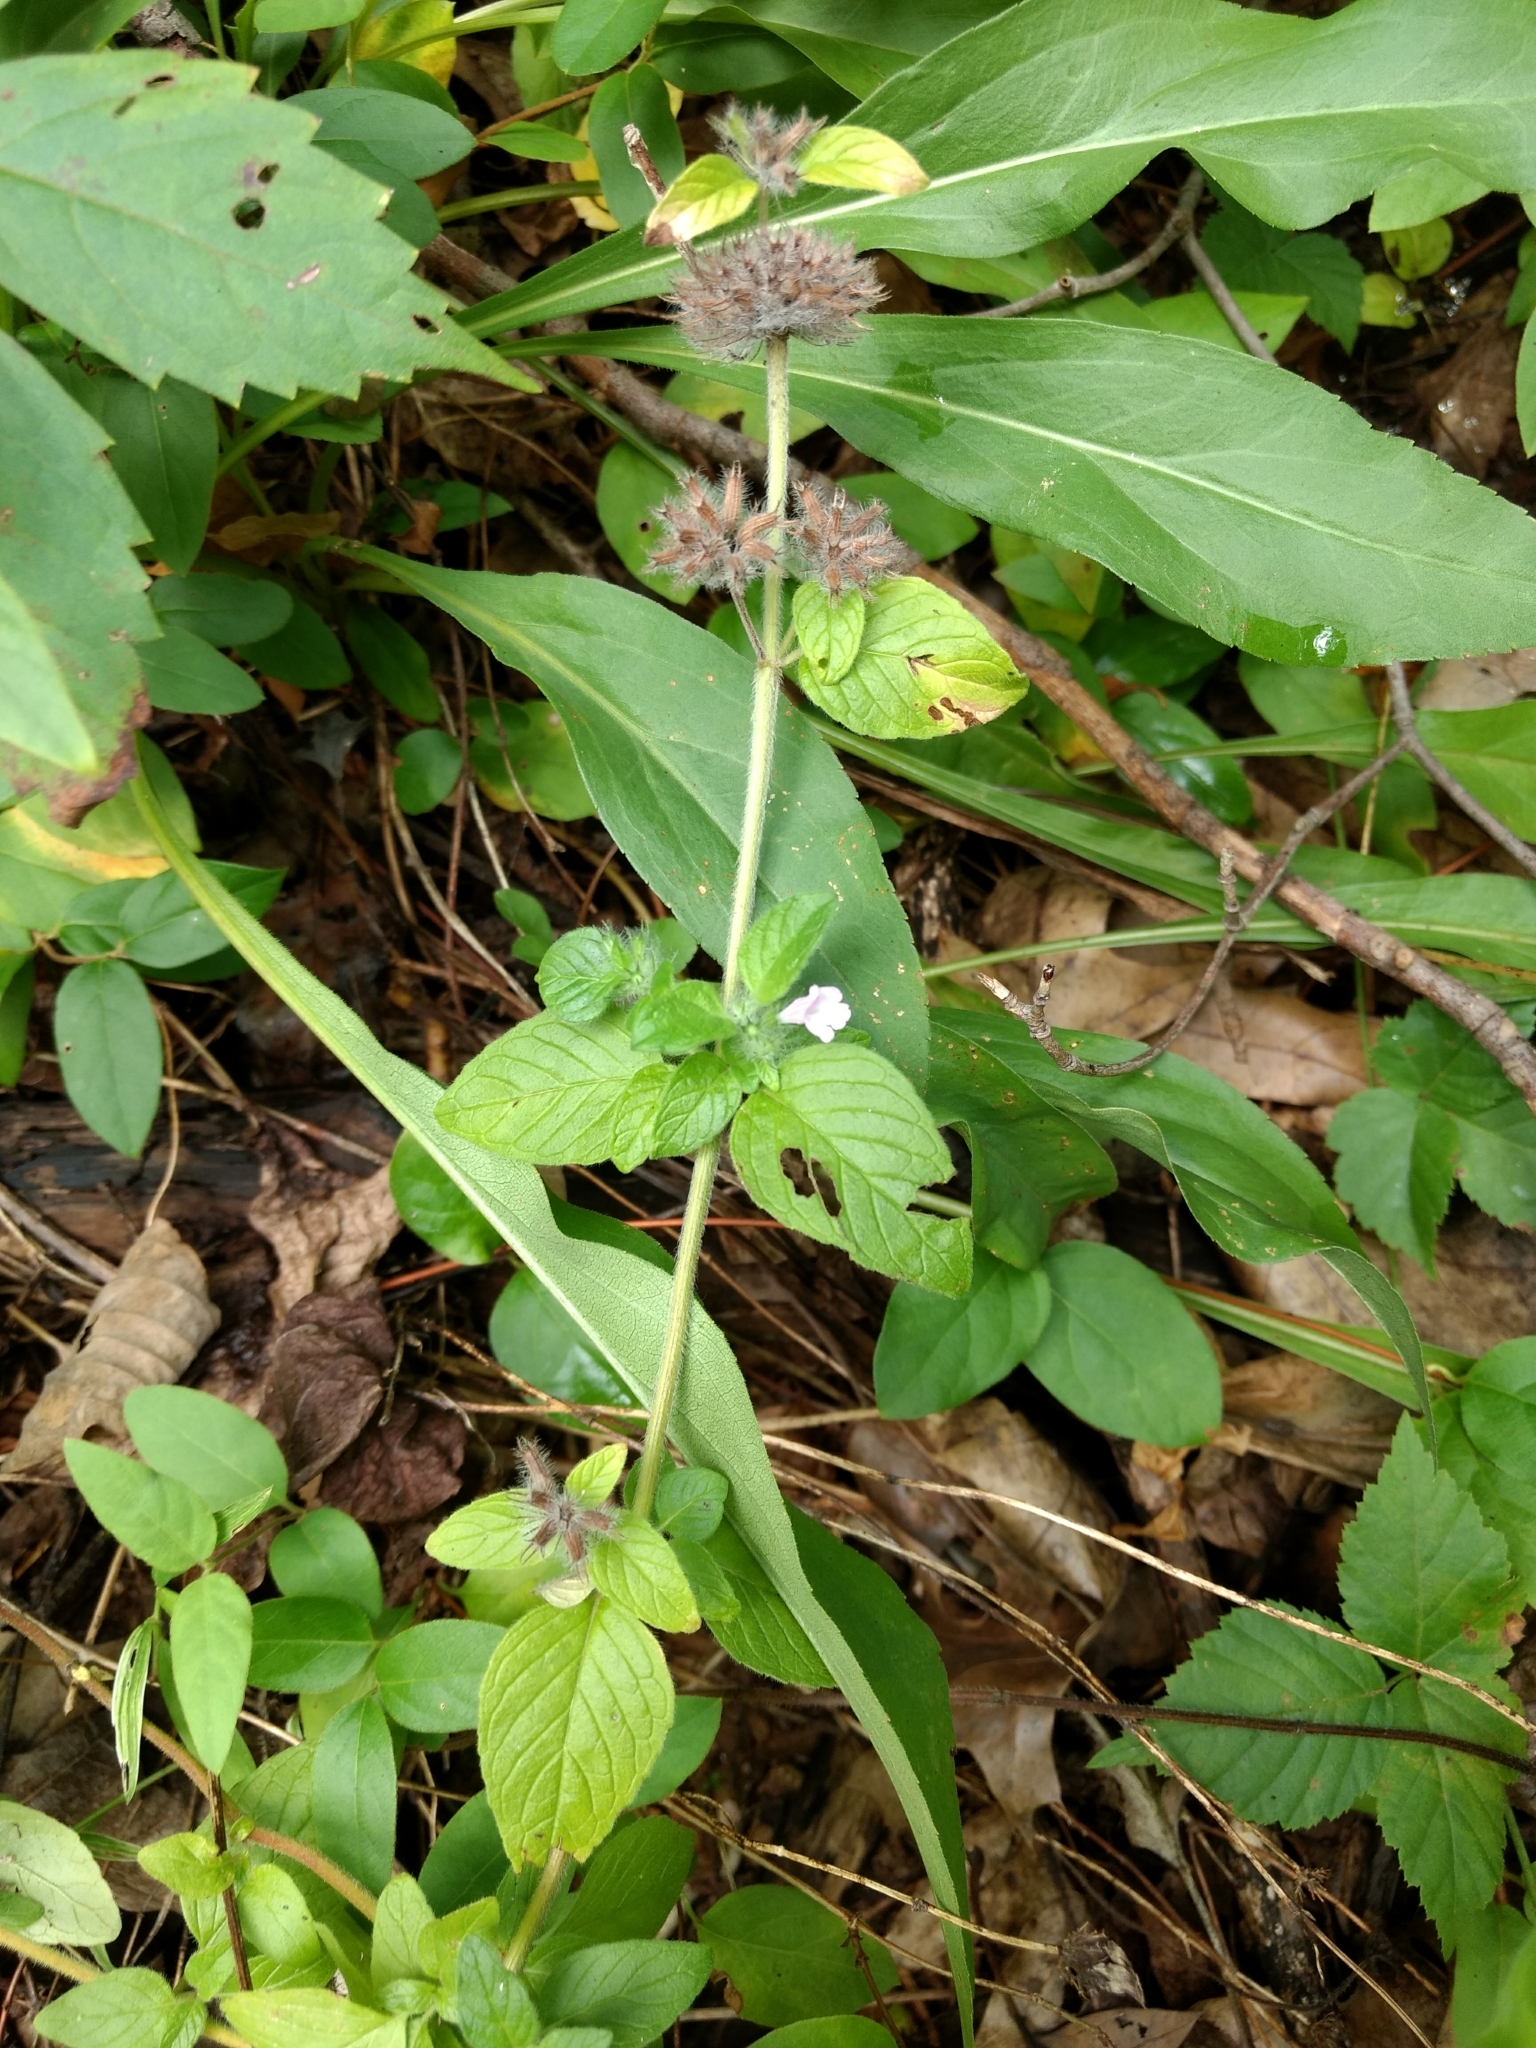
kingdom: Plantae
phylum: Tracheophyta
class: Magnoliopsida
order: Lamiales
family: Lamiaceae
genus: Clinopodium
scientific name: Clinopodium vulgare
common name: Wild basil
